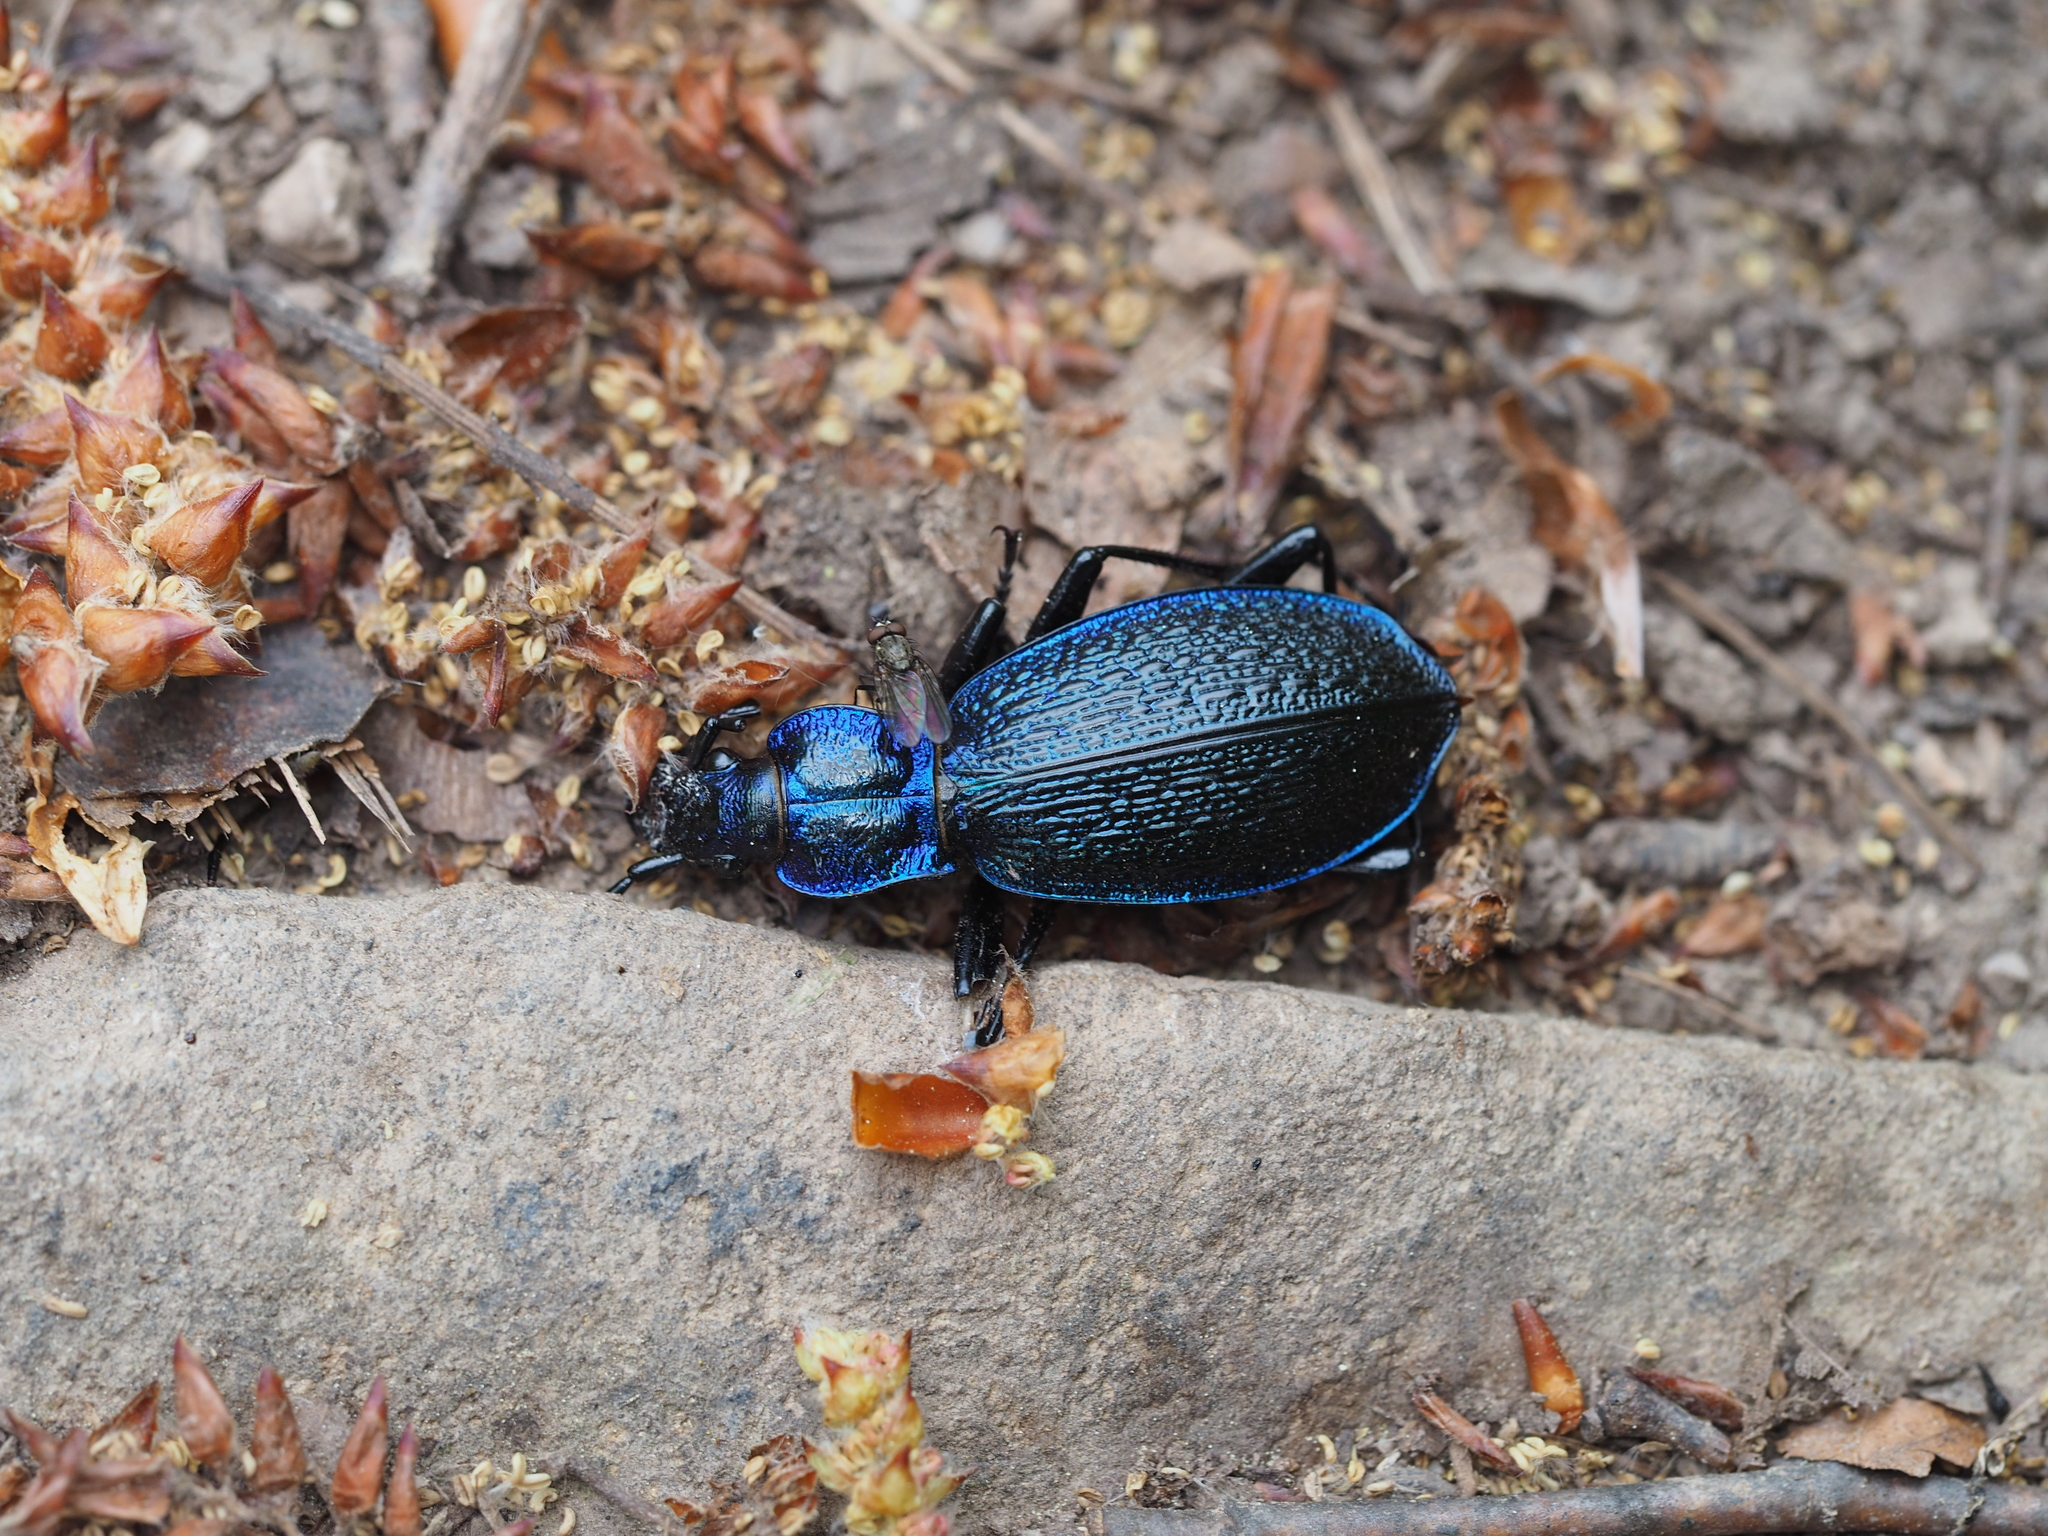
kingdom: Animalia
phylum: Arthropoda
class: Insecta
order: Coleoptera
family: Carabidae
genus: Carabus
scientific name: Carabus intricatus
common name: Blue ground beetle
